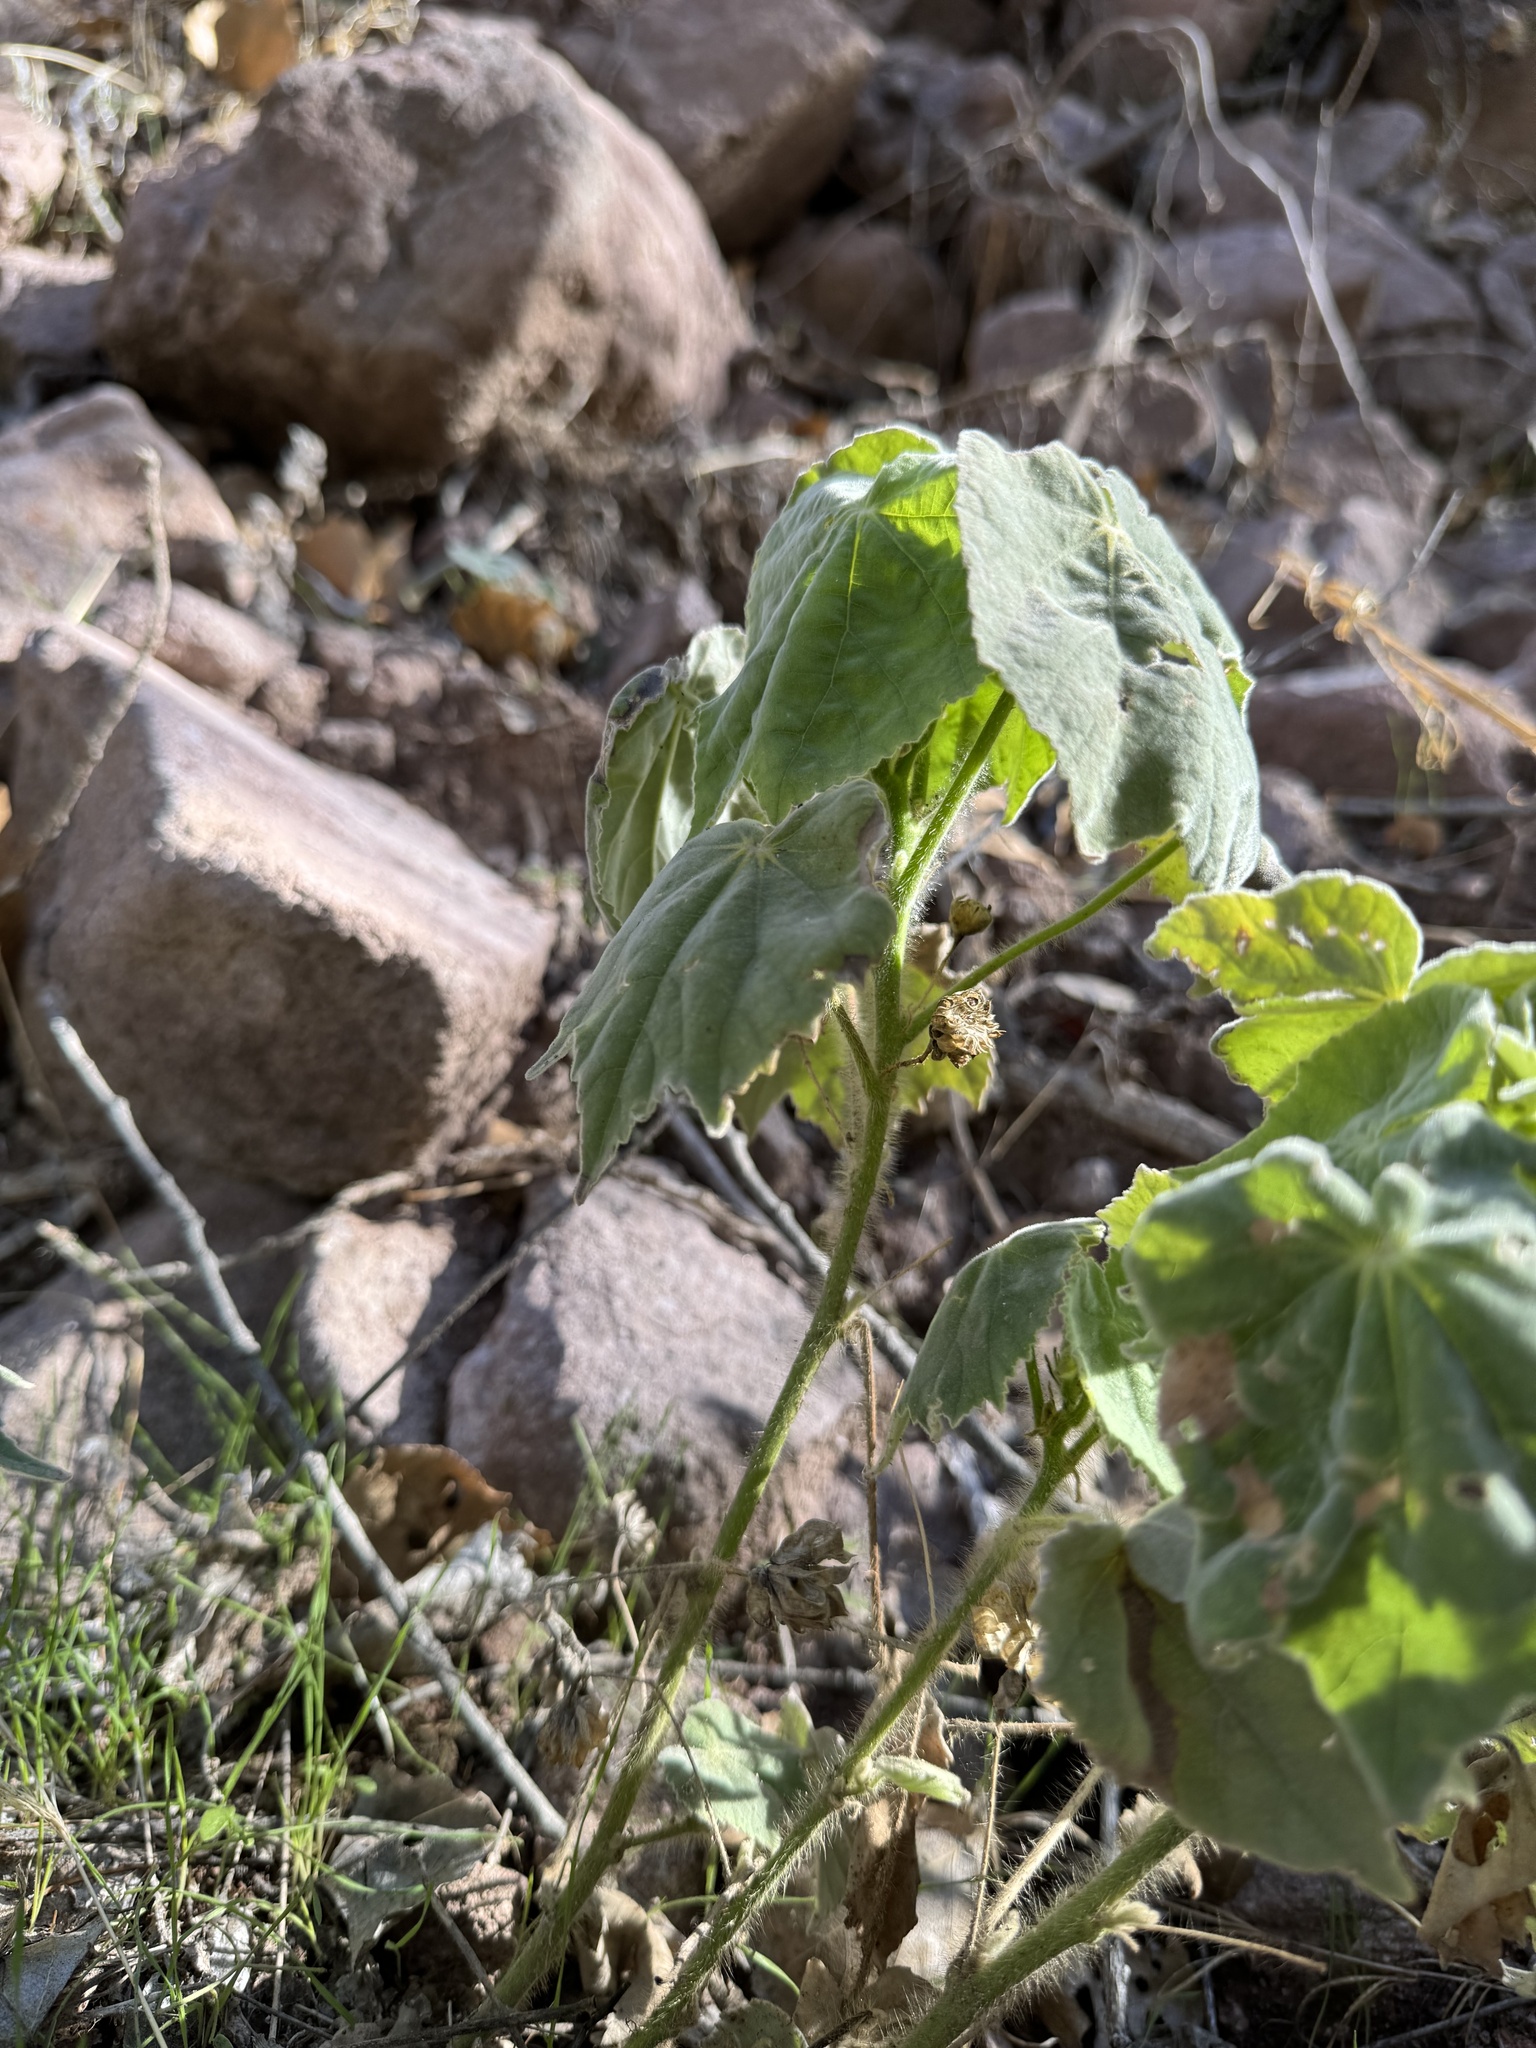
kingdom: Plantae
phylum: Tracheophyta
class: Magnoliopsida
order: Malvales
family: Malvaceae
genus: Abutilon
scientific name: Abutilon mollicomum
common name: Sonoran indian-mallow
